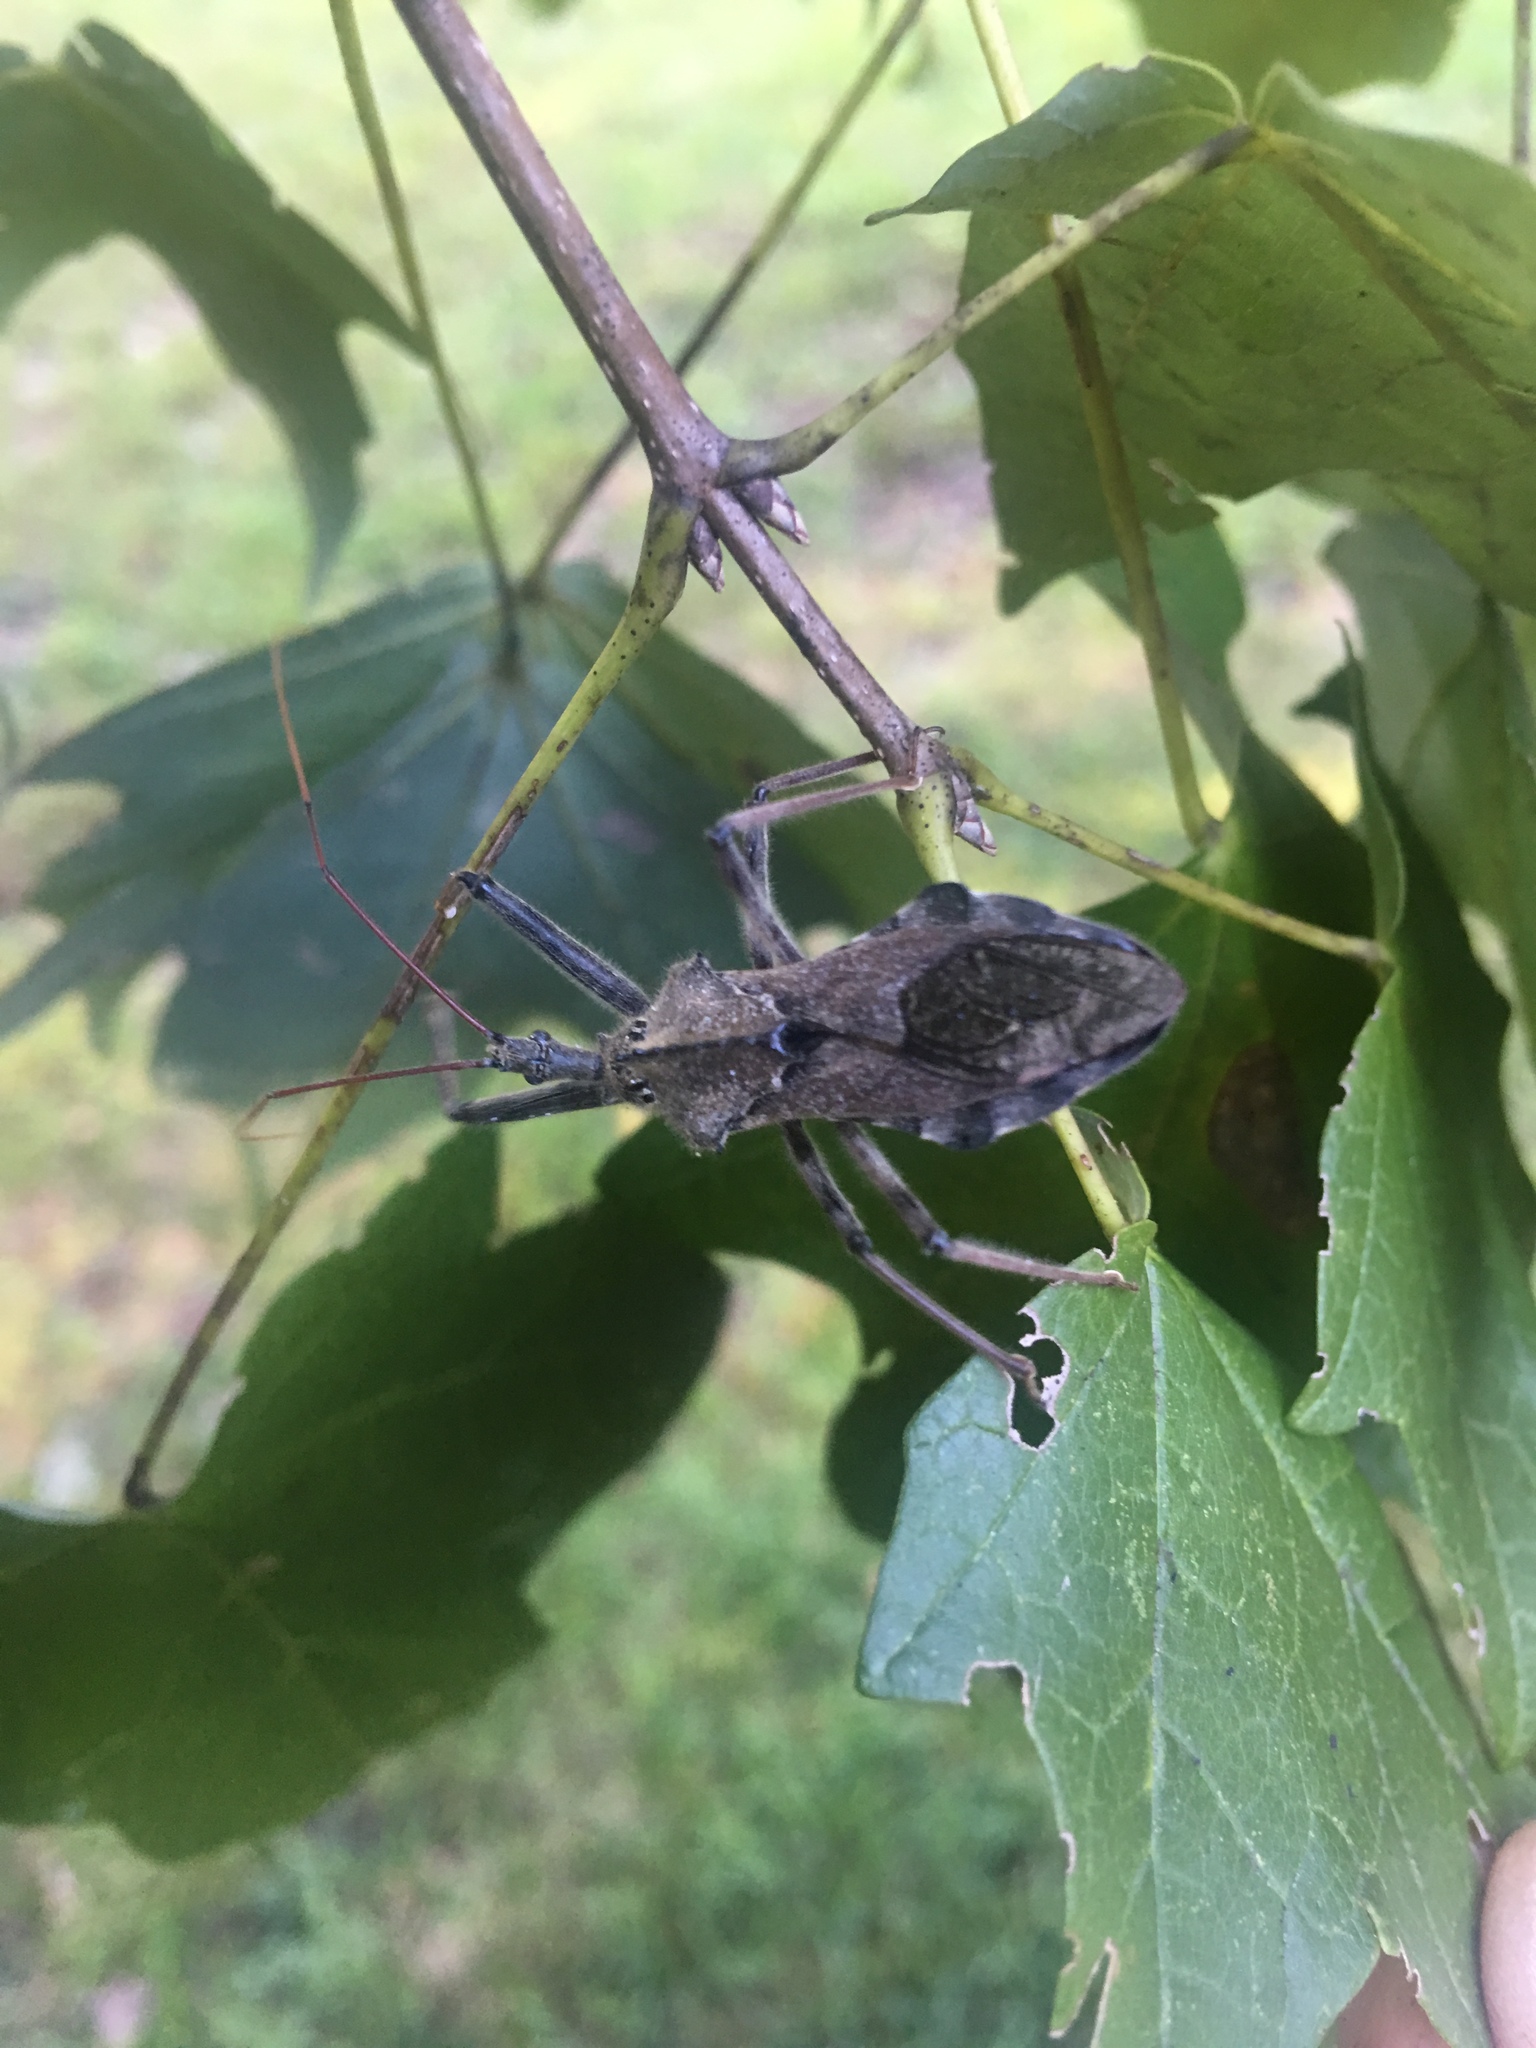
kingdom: Animalia
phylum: Arthropoda
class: Insecta
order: Hemiptera
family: Reduviidae
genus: Arilus
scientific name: Arilus cristatus
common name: North american wheel bug
